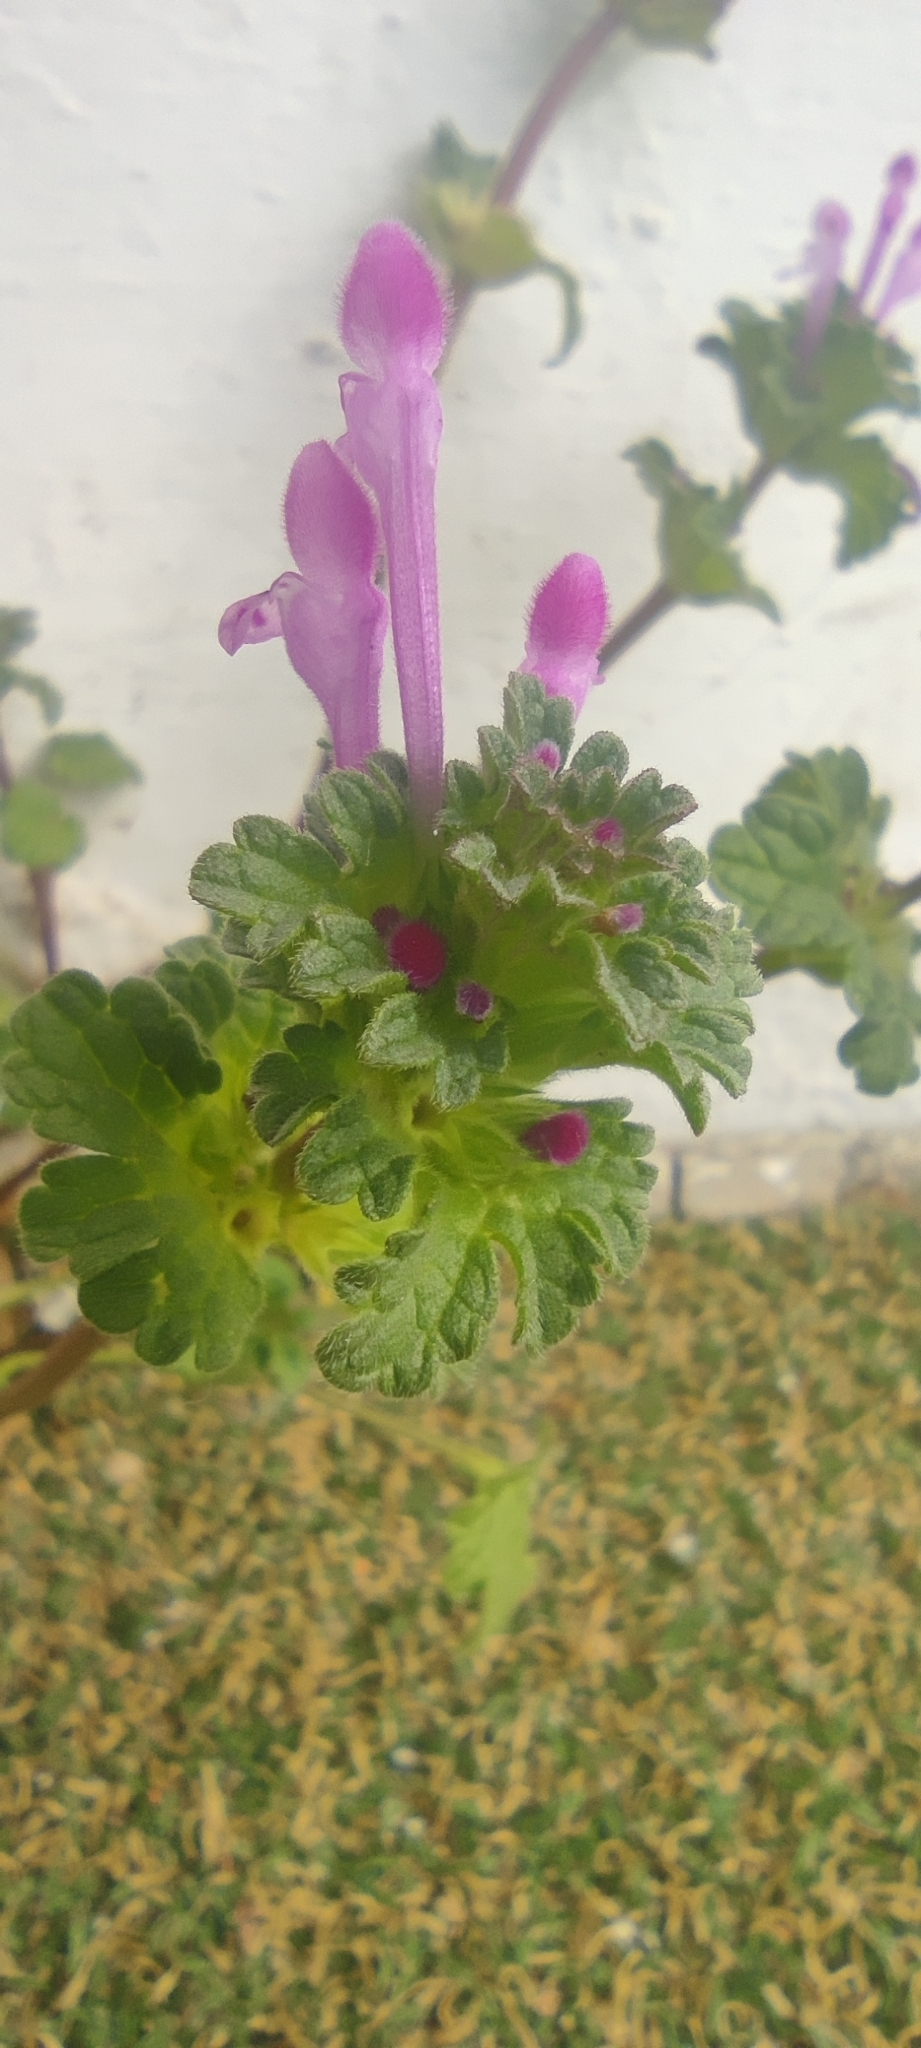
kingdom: Plantae
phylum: Tracheophyta
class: Magnoliopsida
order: Lamiales
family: Lamiaceae
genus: Lamium
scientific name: Lamium amplexicaule
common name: Henbit dead-nettle
